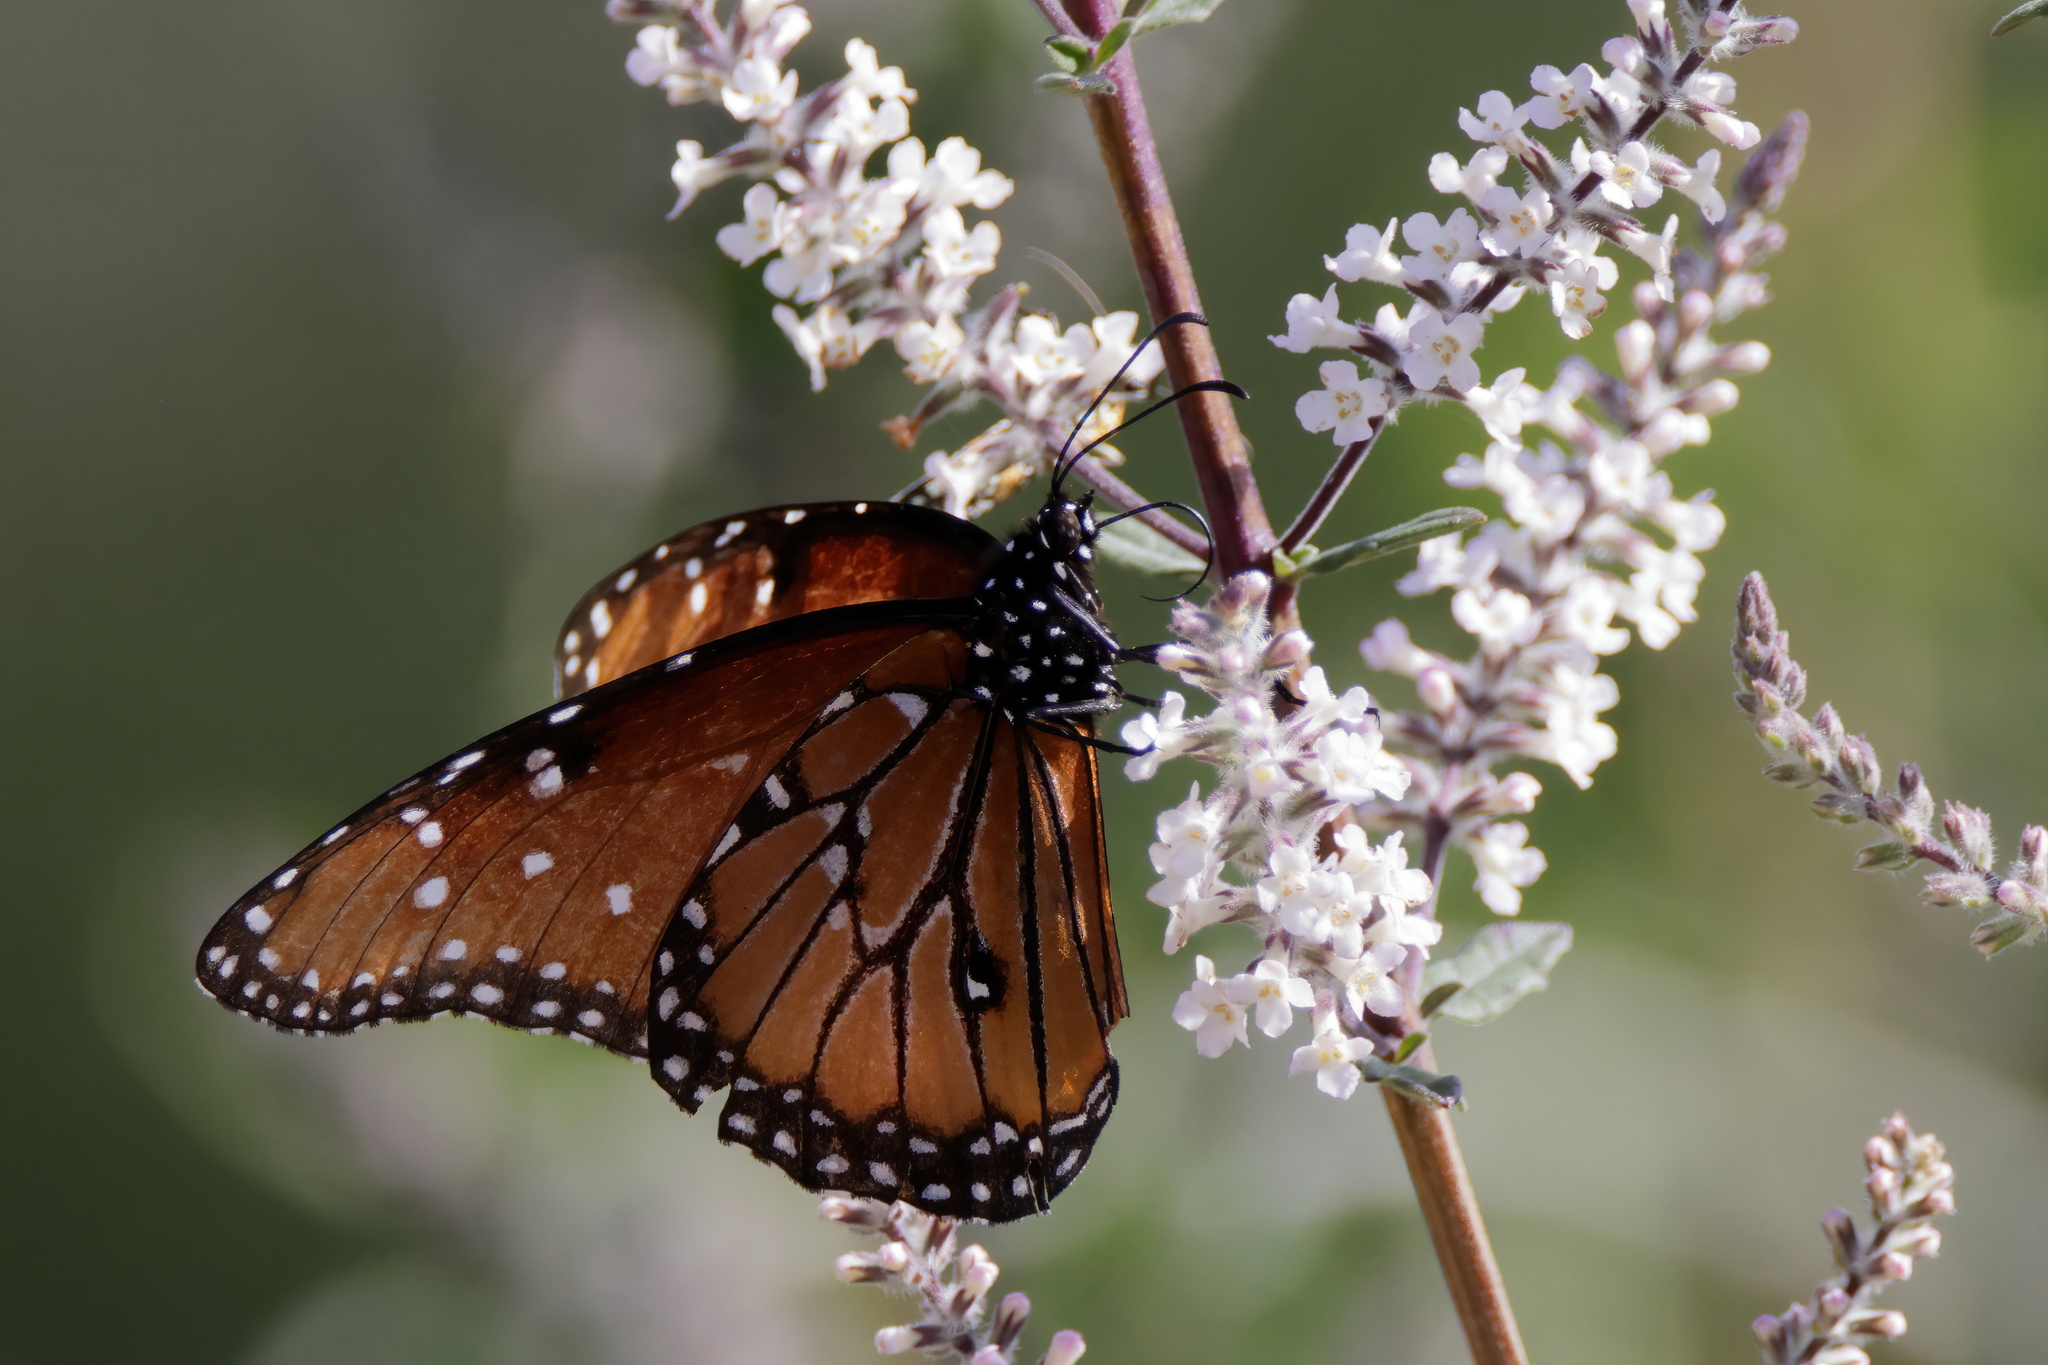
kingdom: Animalia
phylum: Arthropoda
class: Insecta
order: Lepidoptera
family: Nymphalidae
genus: Danaus
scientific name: Danaus gilippus
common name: Queen
